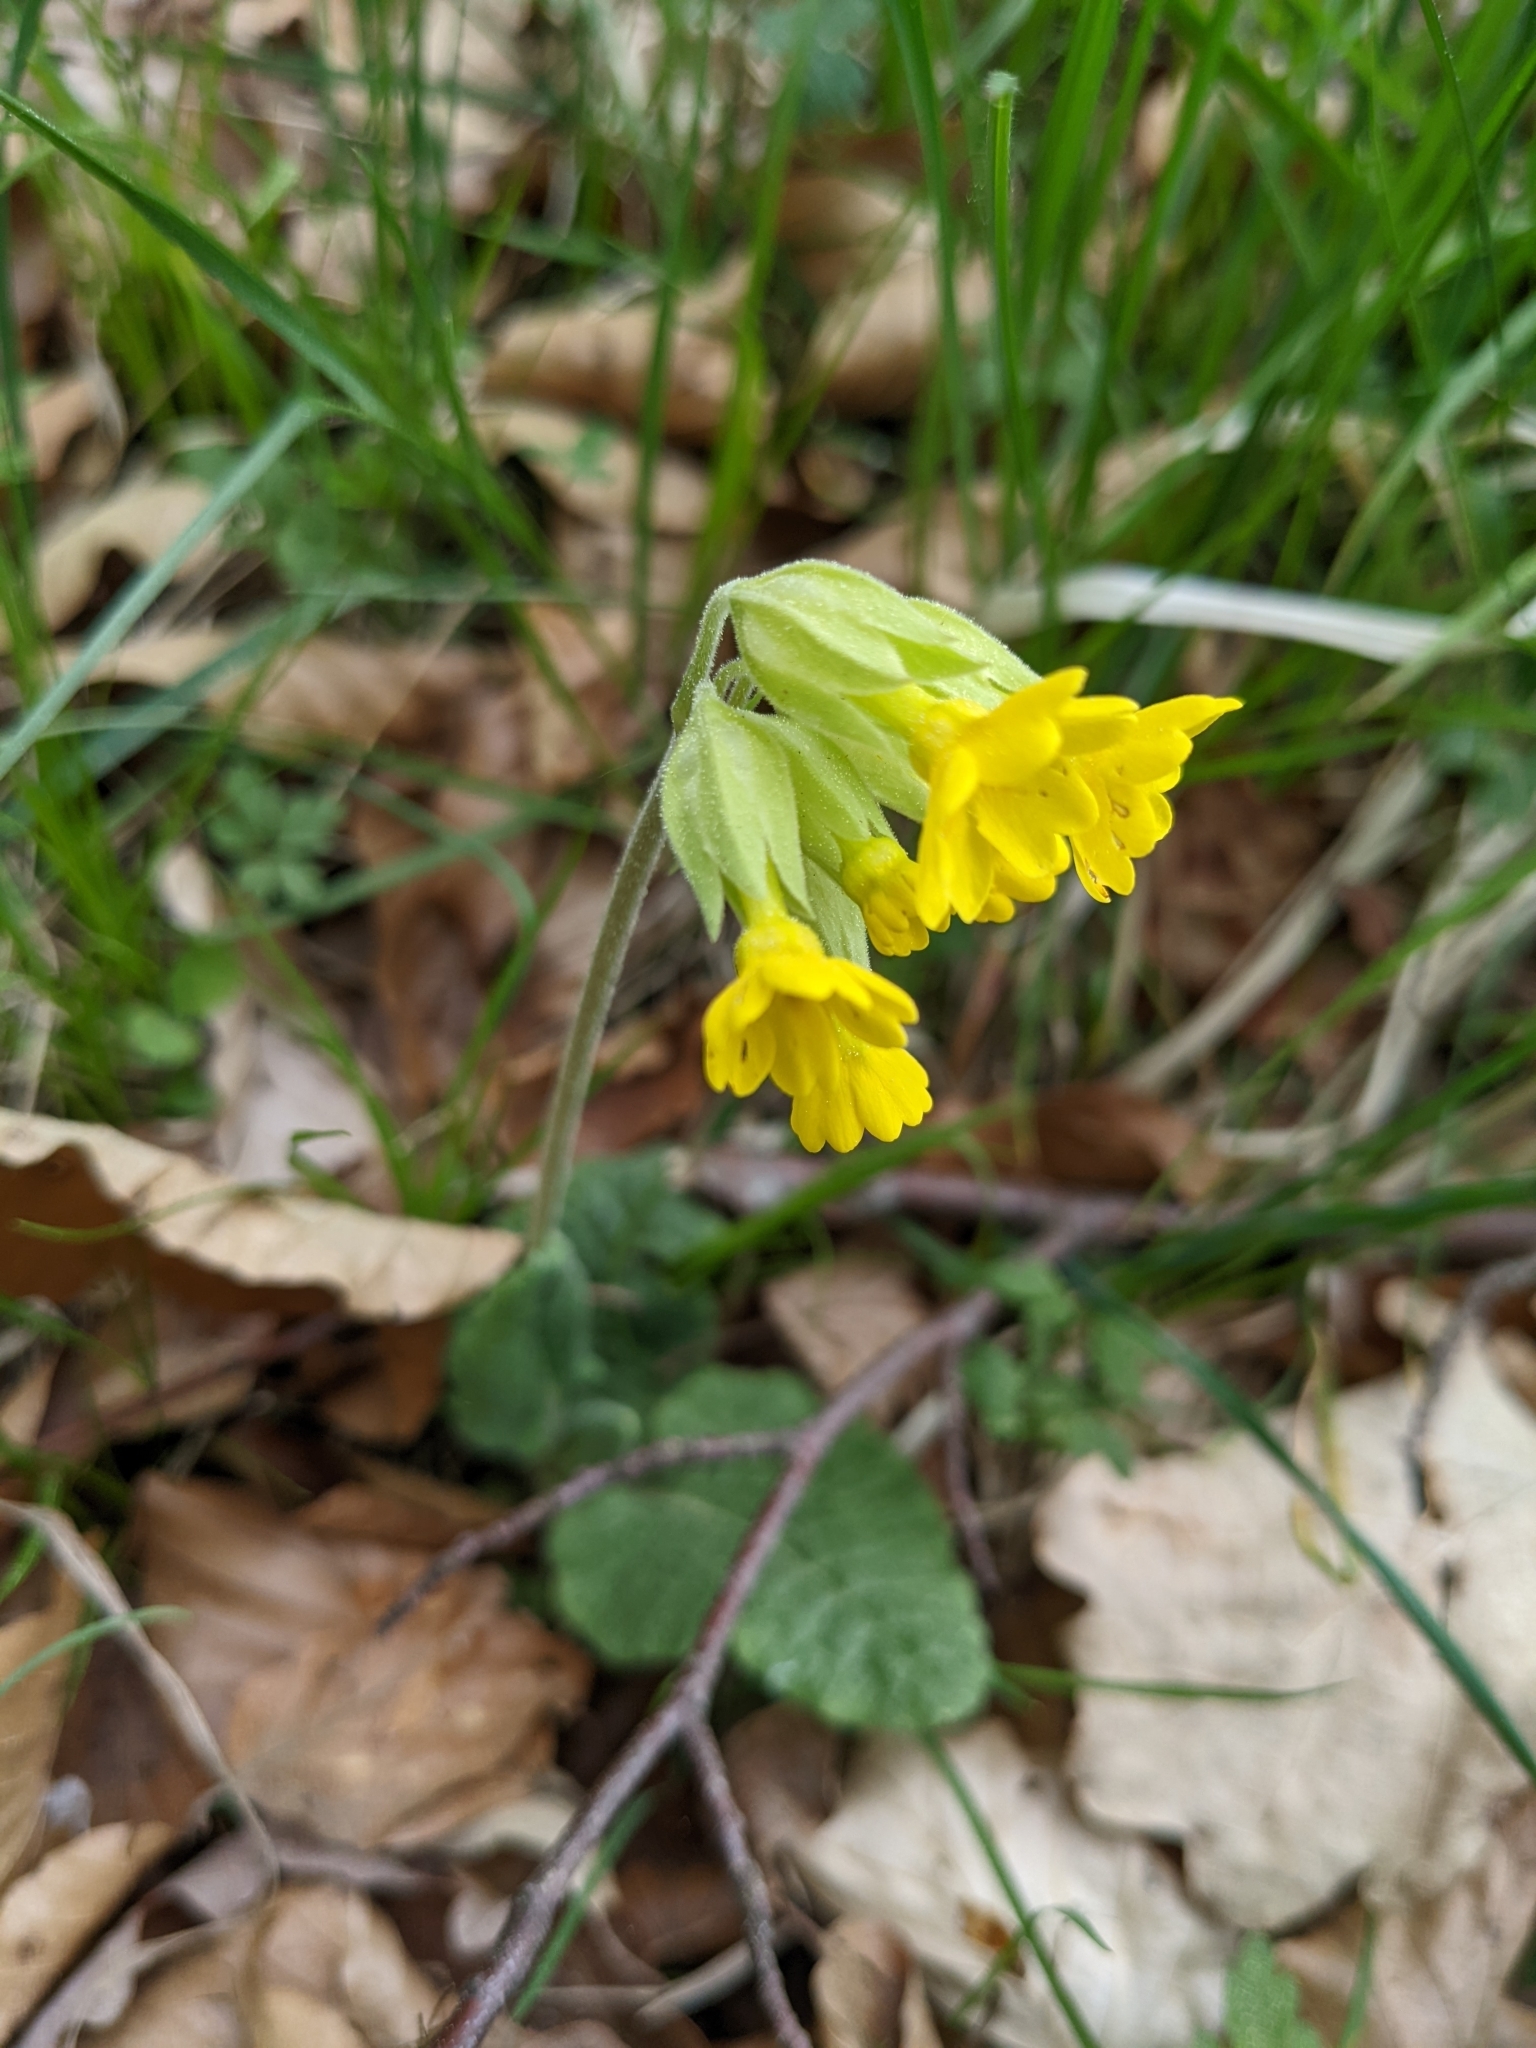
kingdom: Plantae
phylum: Tracheophyta
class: Magnoliopsida
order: Ericales
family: Primulaceae
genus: Primula
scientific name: Primula veris
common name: Cowslip
